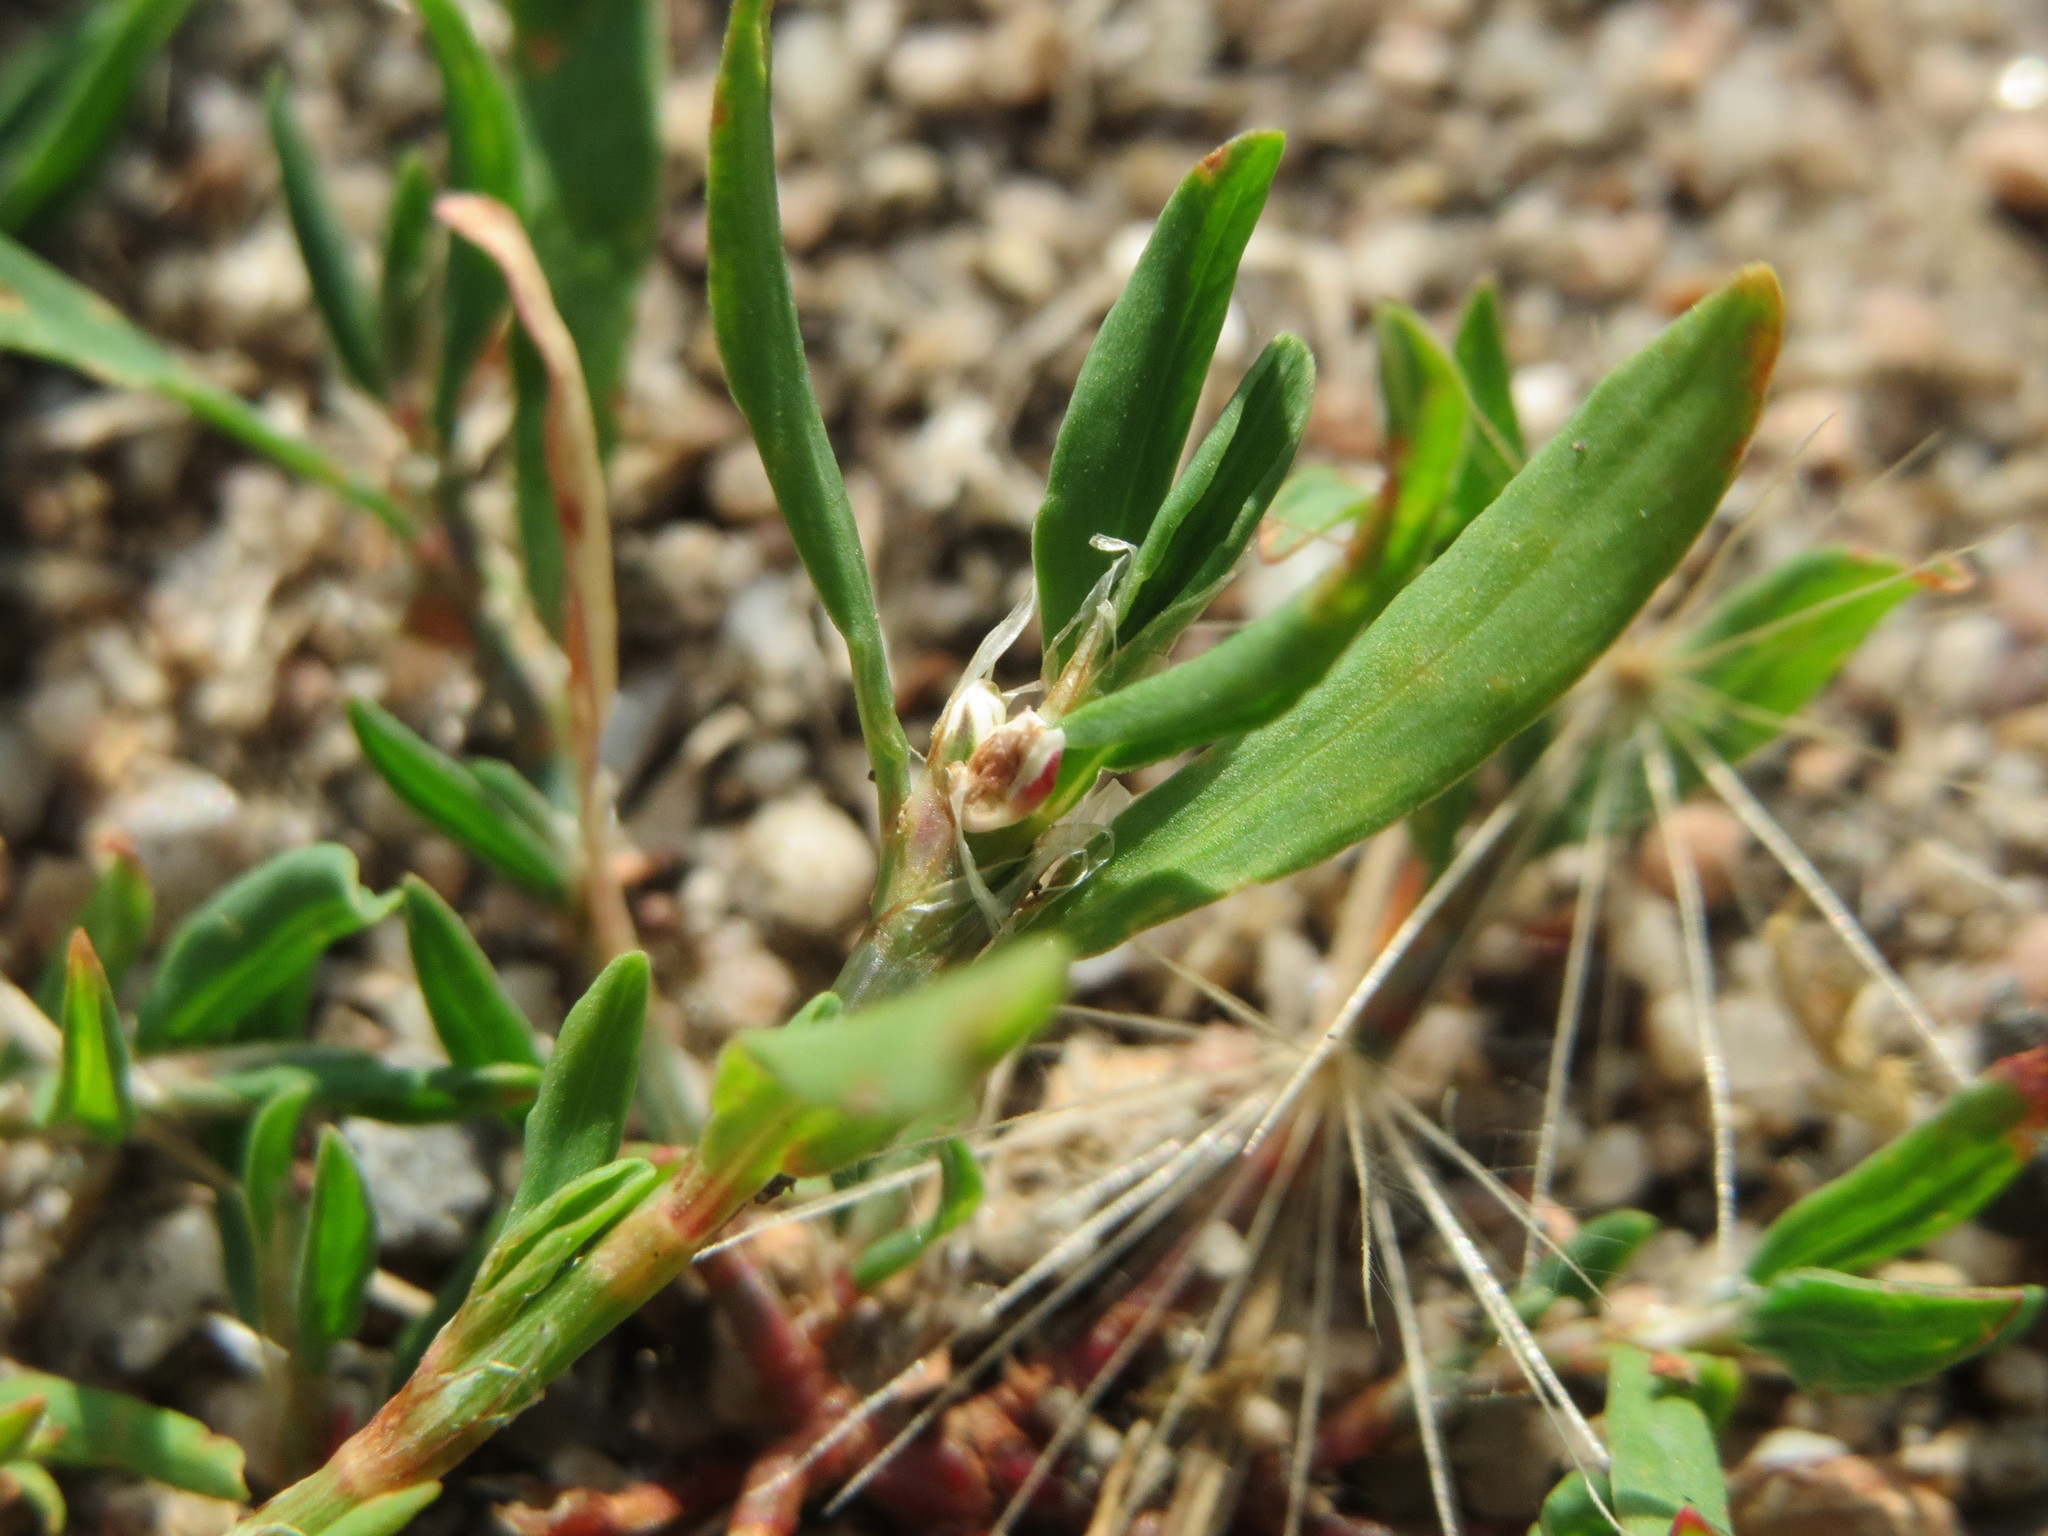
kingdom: Plantae
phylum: Tracheophyta
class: Magnoliopsida
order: Caryophyllales
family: Polygonaceae
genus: Polygonum
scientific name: Polygonum aviculare
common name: Prostrate knotweed
